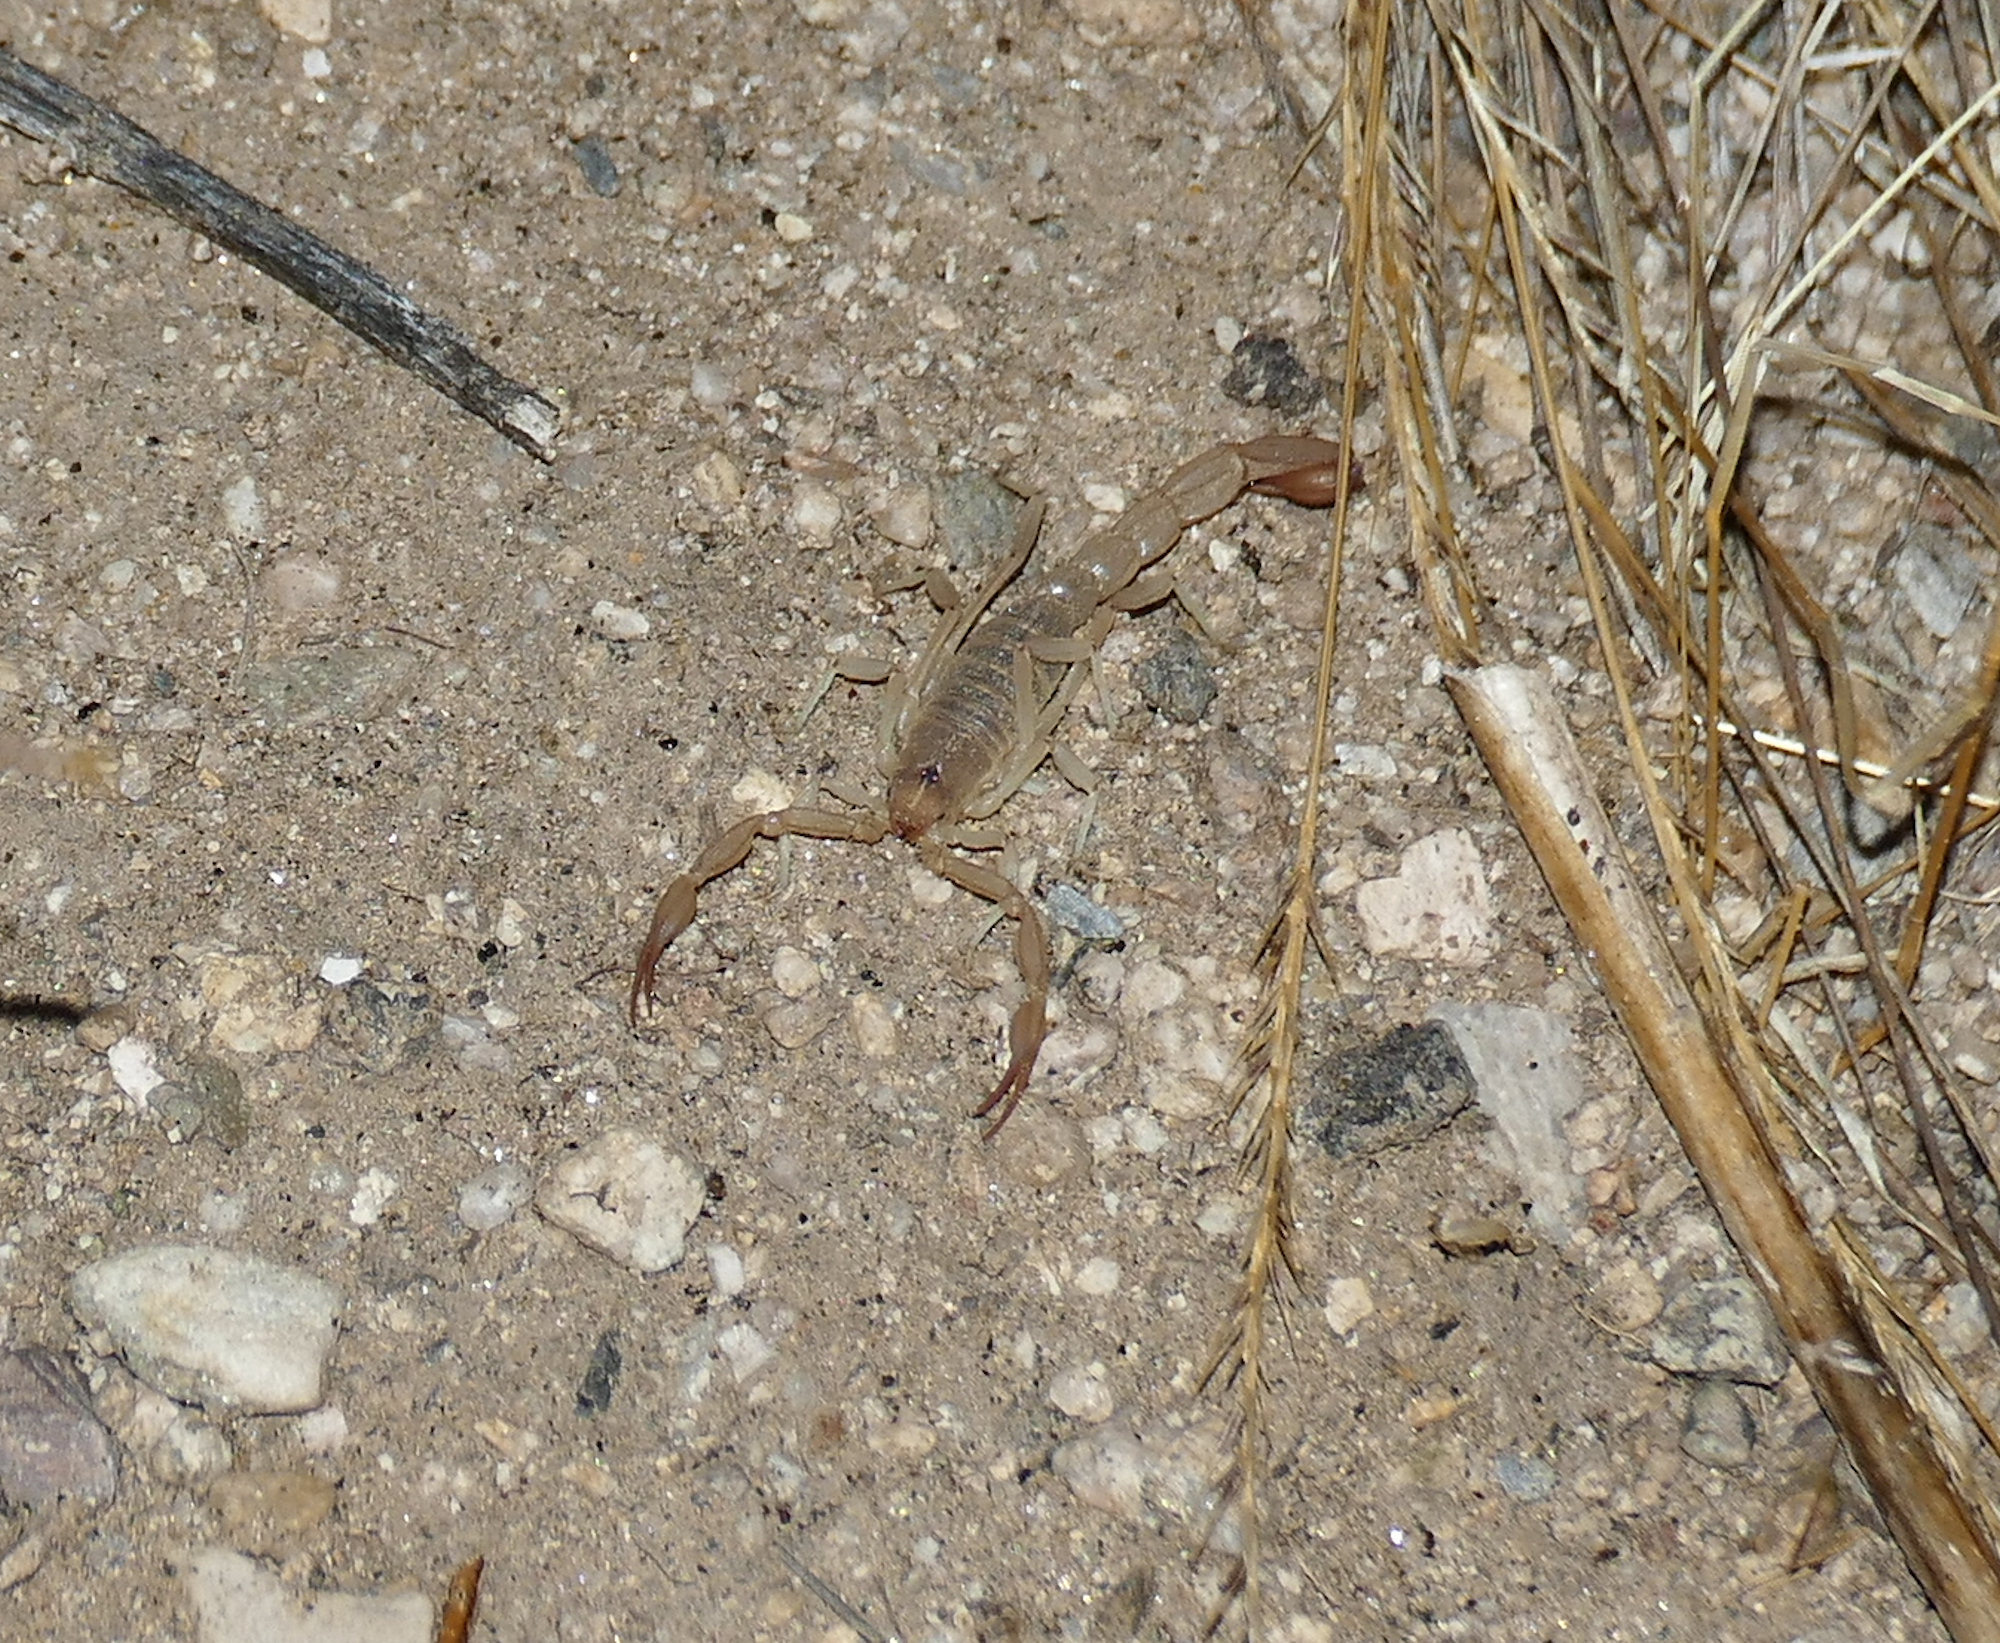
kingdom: Animalia
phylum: Arthropoda
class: Arachnida
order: Scorpiones
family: Vaejovidae
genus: Paravaejovis
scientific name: Paravaejovis confusus
